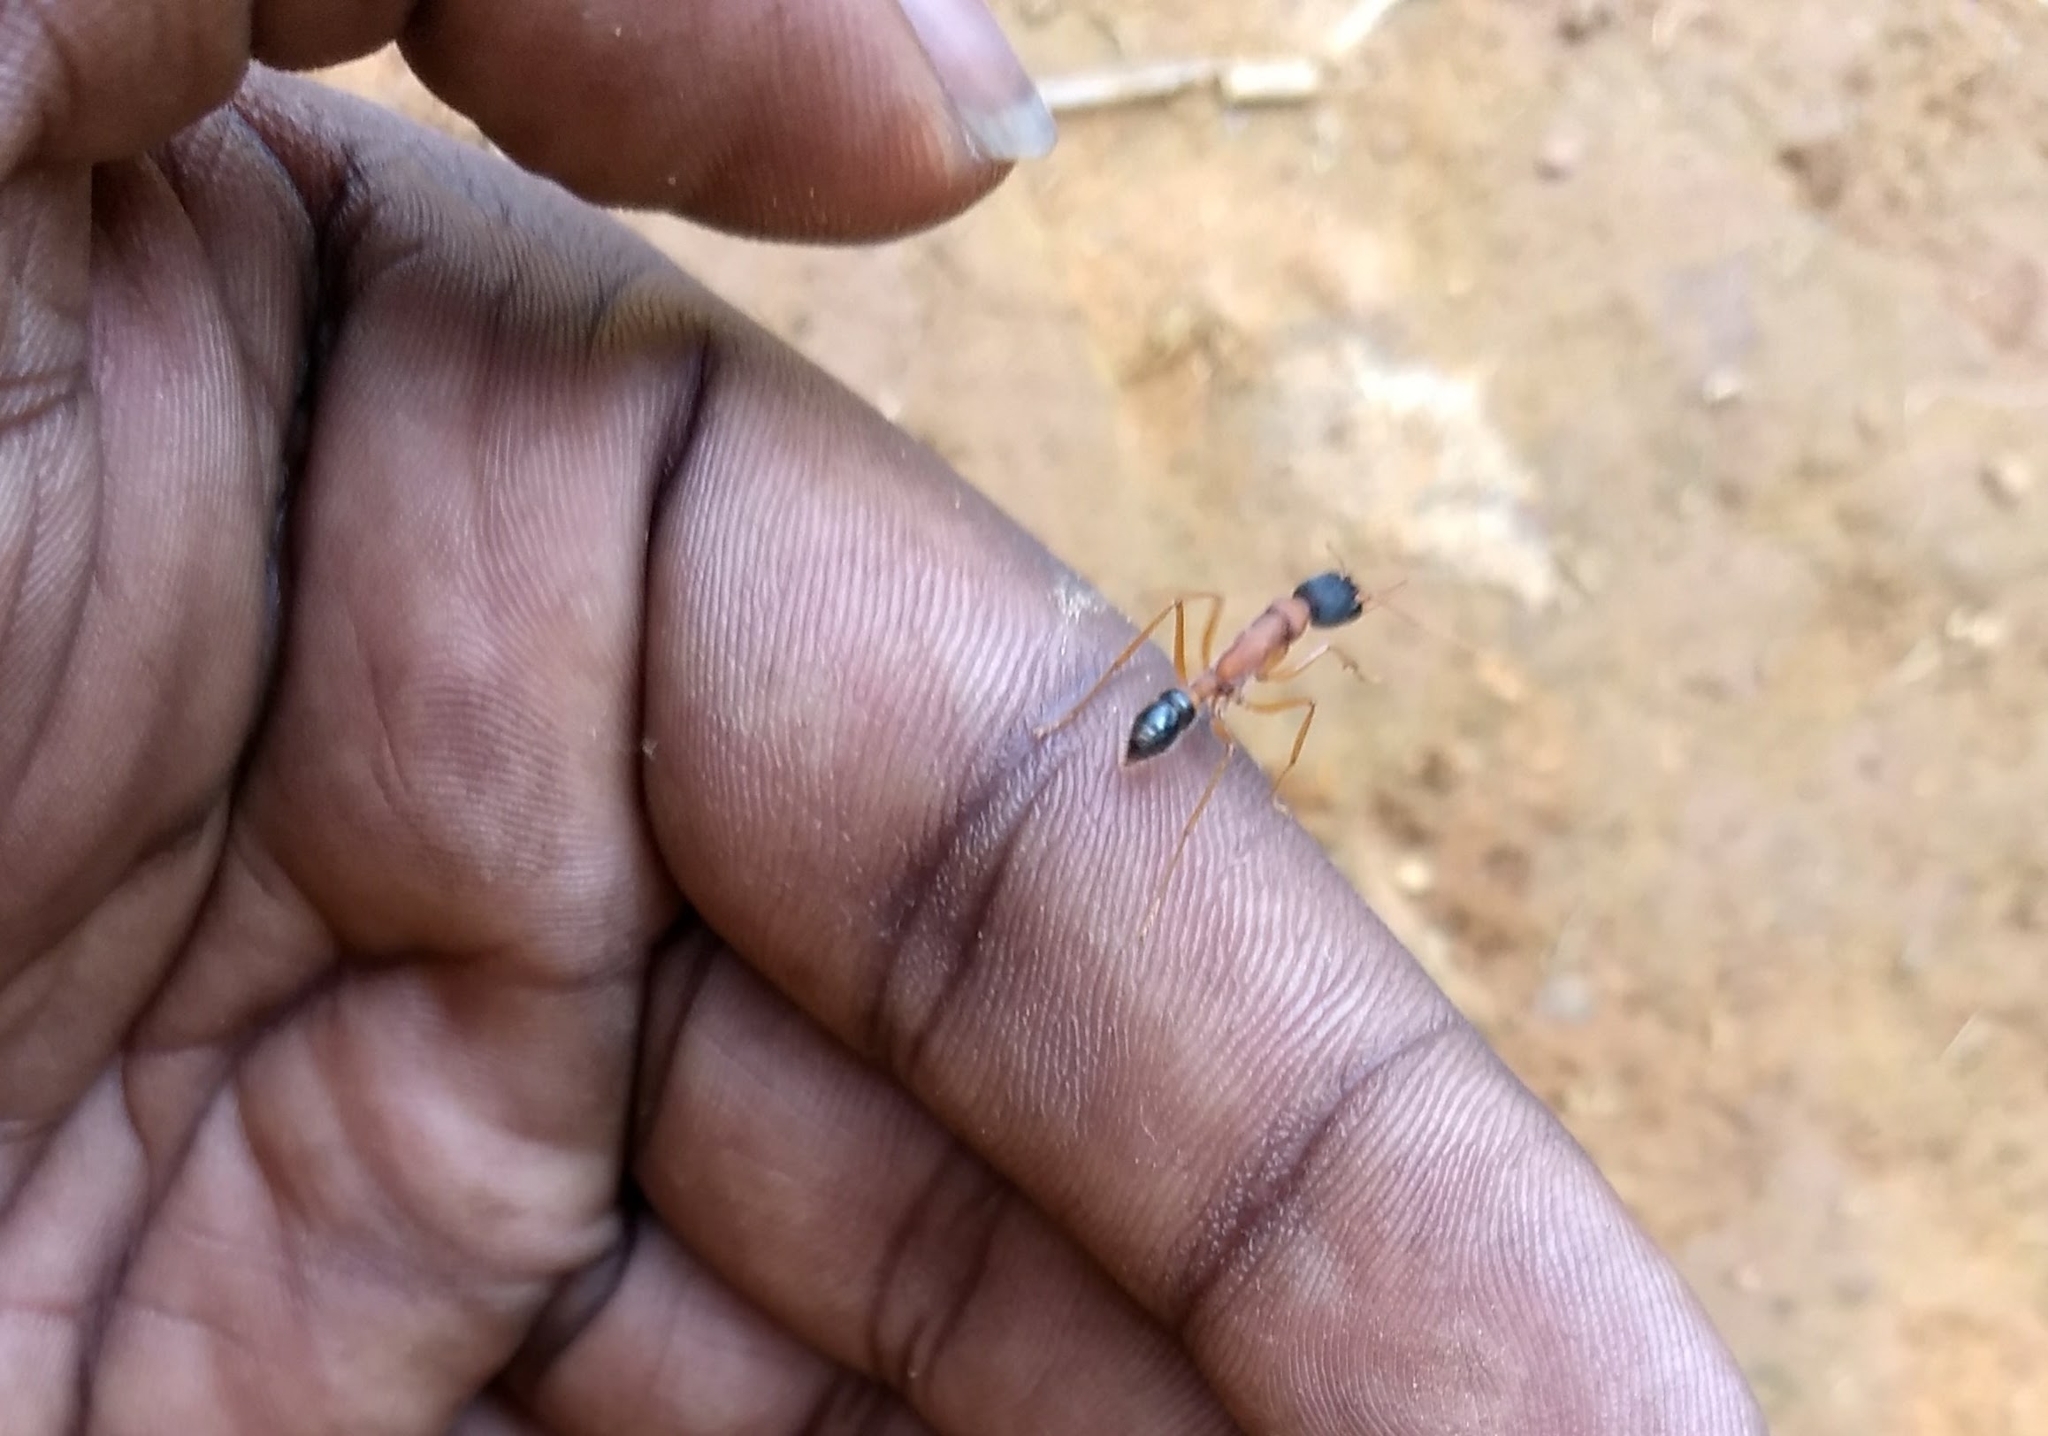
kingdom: Animalia
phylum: Arthropoda
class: Insecta
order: Hymenoptera
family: Formicidae
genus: Harpegnathos
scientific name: Harpegnathos saltator
